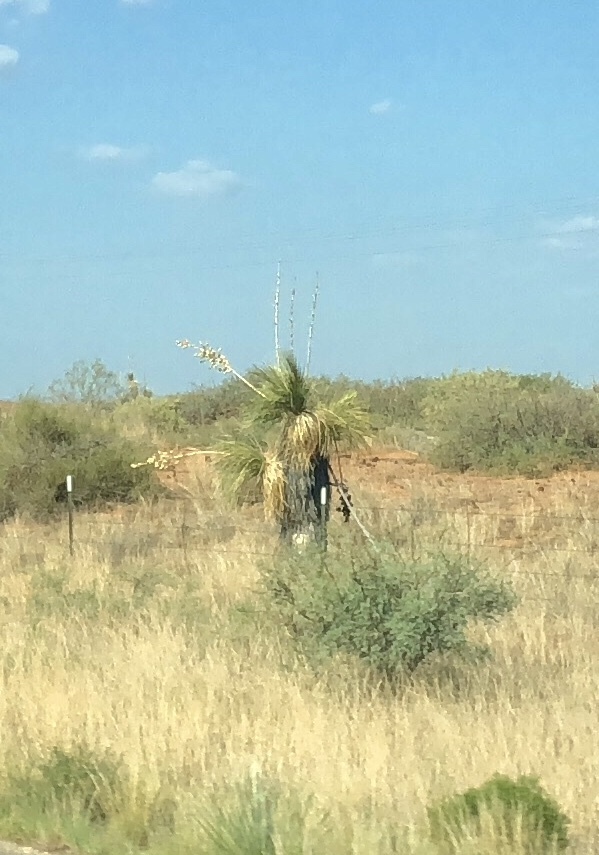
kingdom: Plantae
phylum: Tracheophyta
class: Liliopsida
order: Asparagales
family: Asparagaceae
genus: Yucca
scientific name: Yucca elata
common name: Palmella
